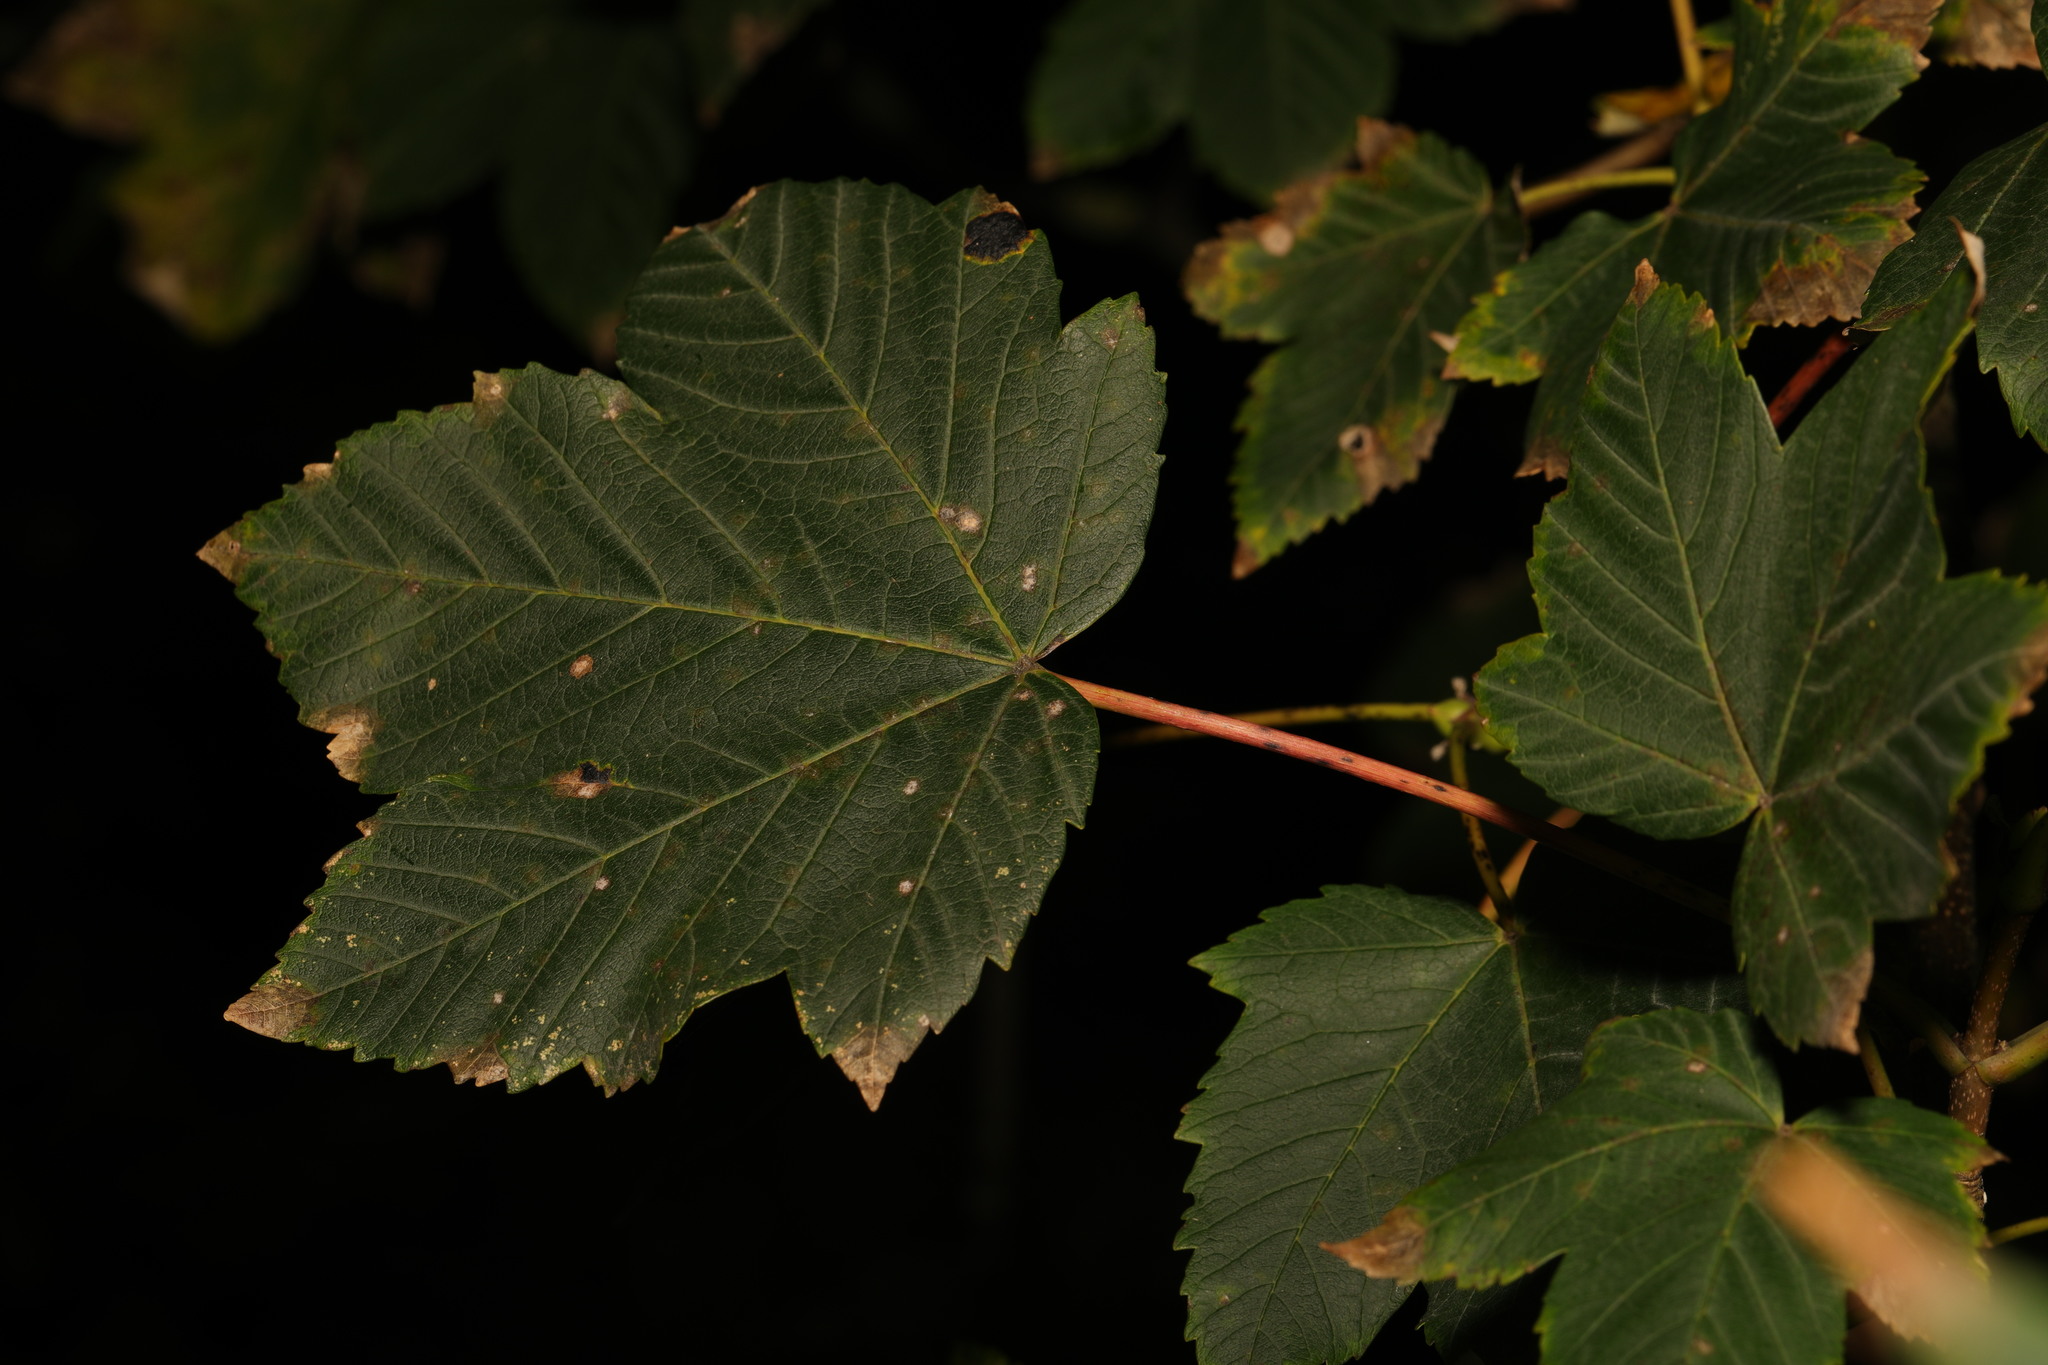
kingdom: Plantae
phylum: Tracheophyta
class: Magnoliopsida
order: Sapindales
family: Sapindaceae
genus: Acer
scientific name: Acer pseudoplatanus
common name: Sycamore
